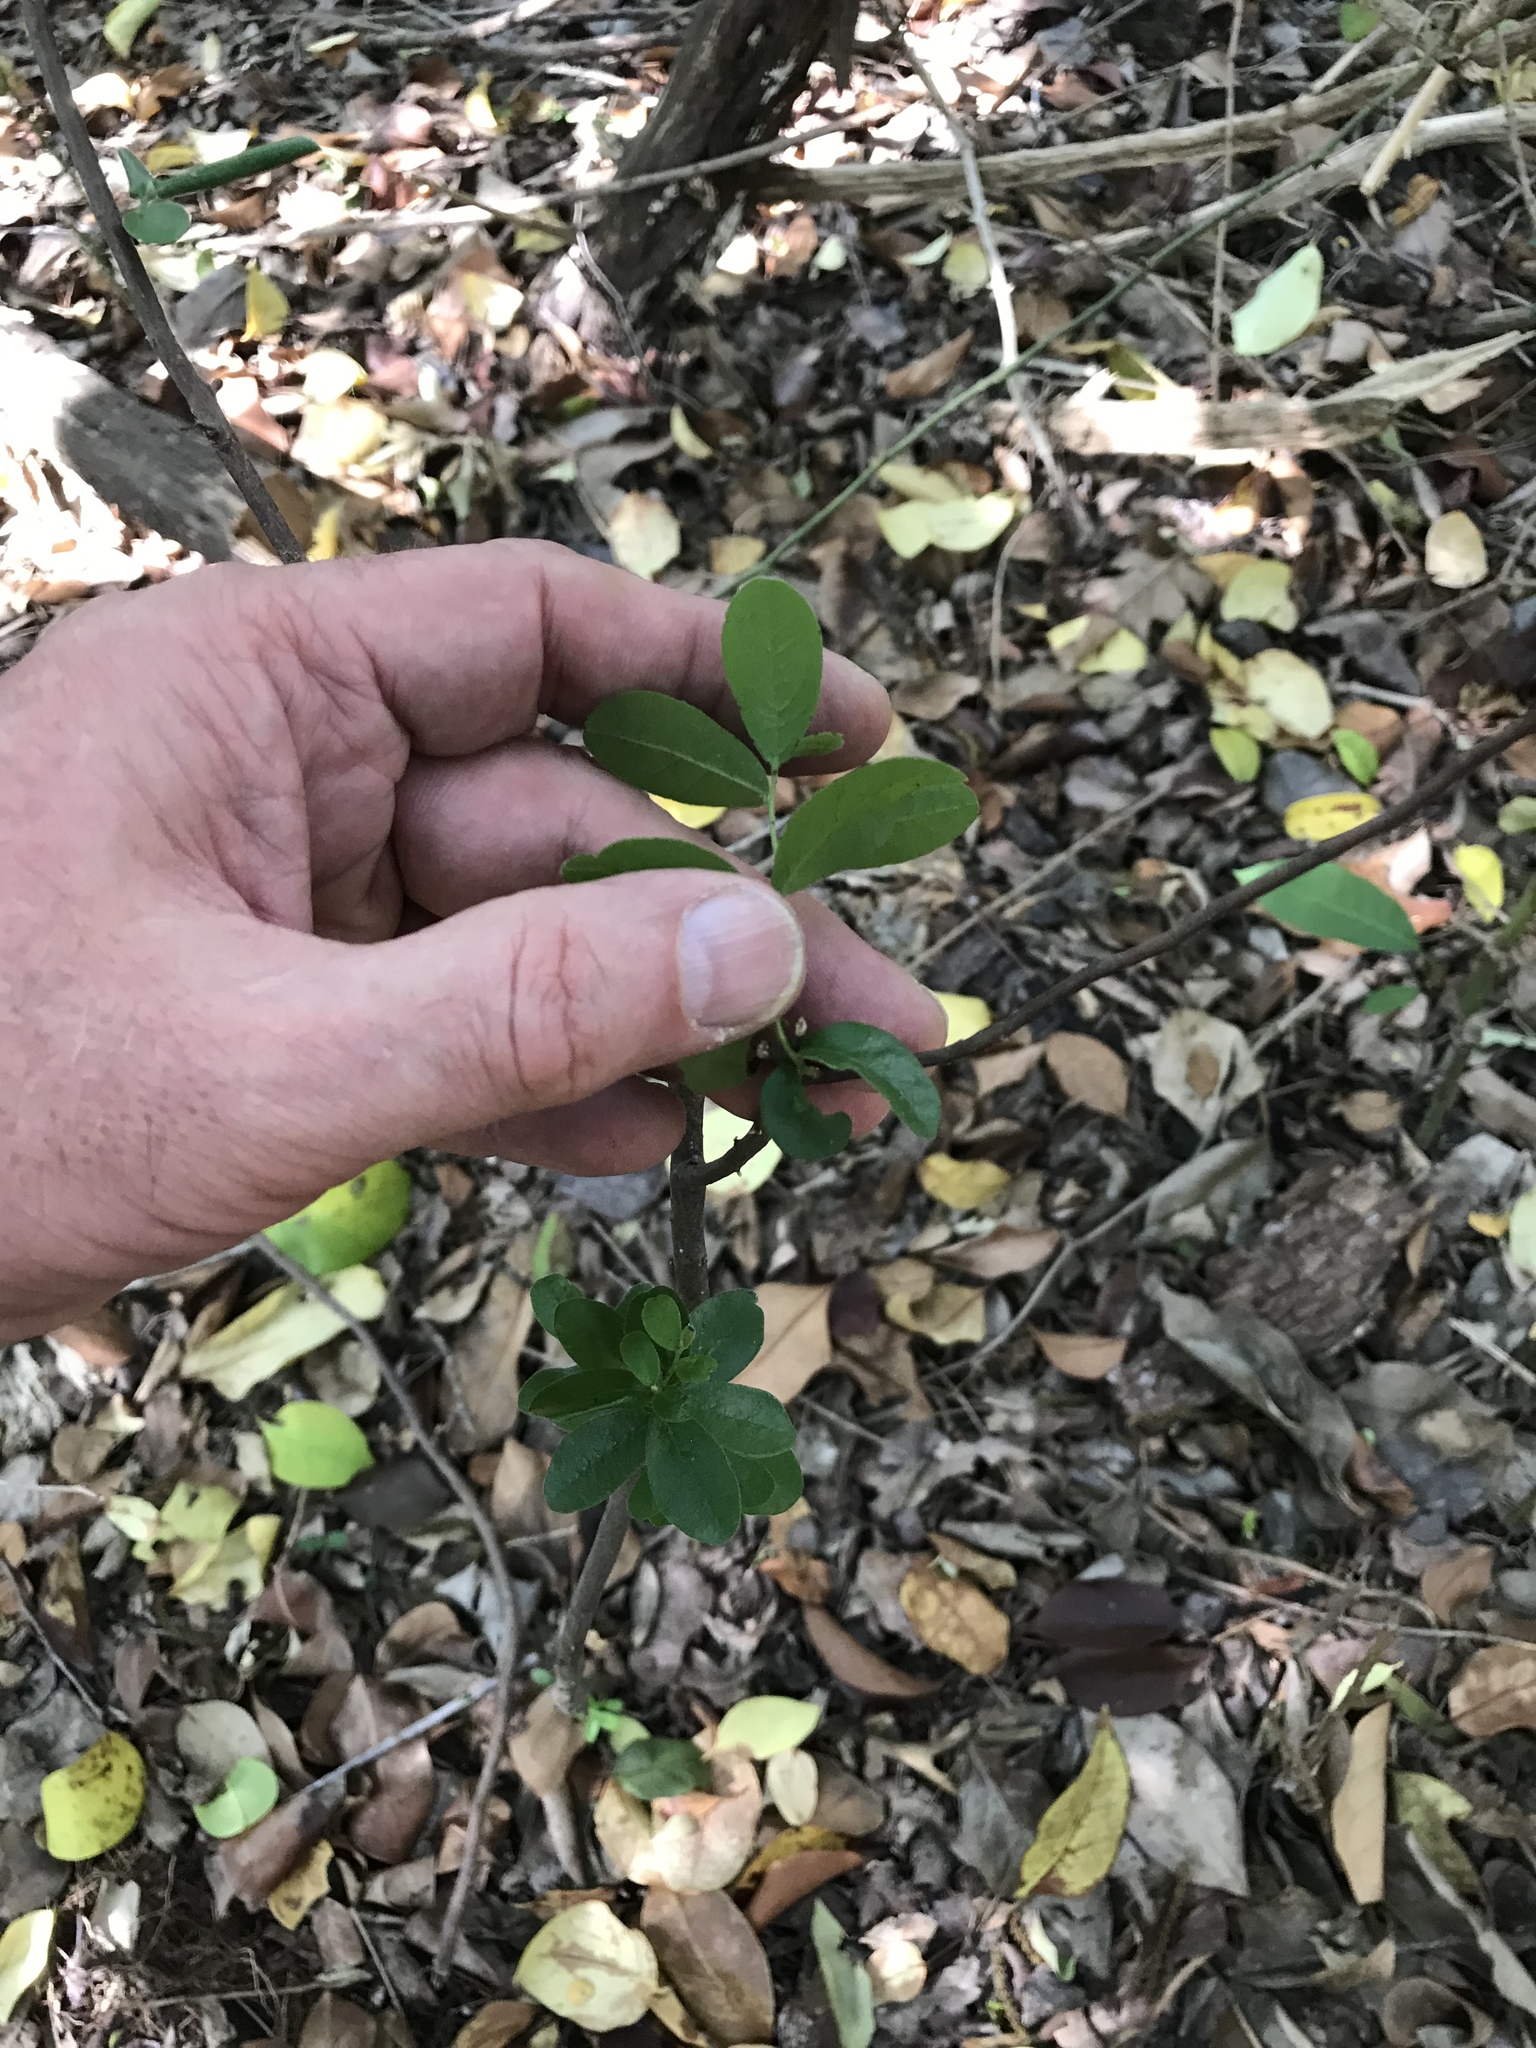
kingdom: Plantae
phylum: Tracheophyta
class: Magnoliopsida
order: Ericales
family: Ebenaceae
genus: Diospyros
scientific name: Diospyros texana
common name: Texas persimmon
